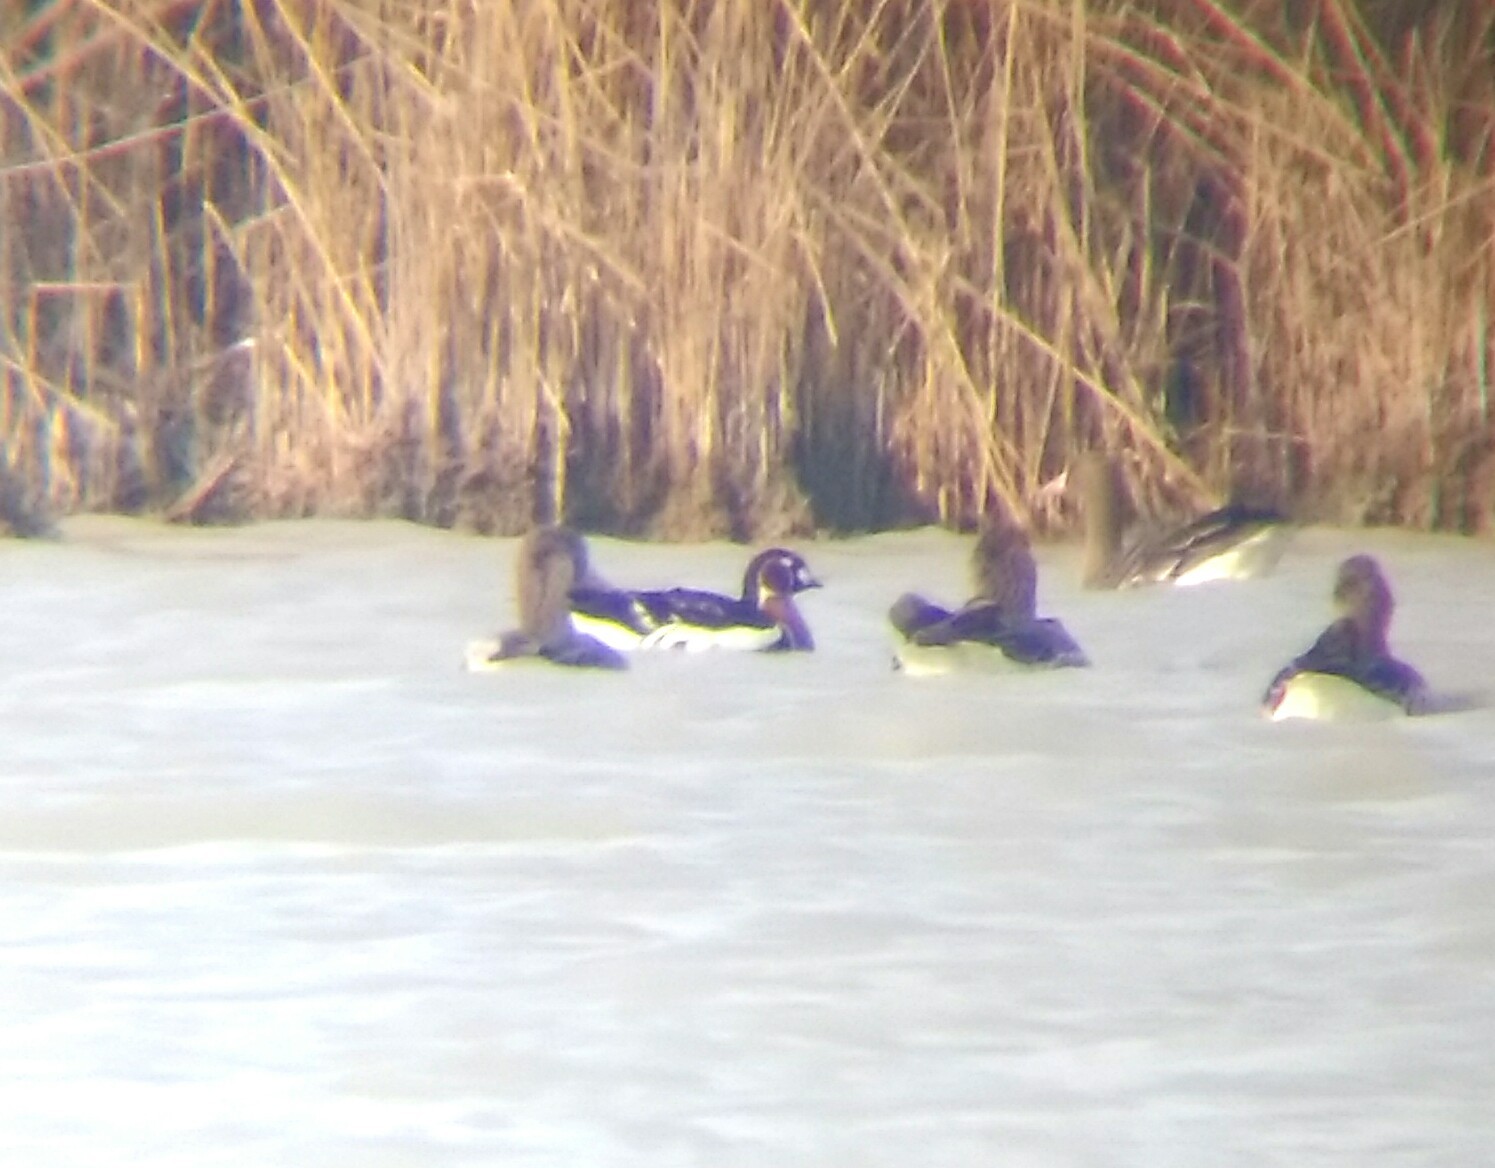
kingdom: Animalia
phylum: Chordata
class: Aves
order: Anseriformes
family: Anatidae
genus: Branta
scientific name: Branta ruficollis
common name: Red-breasted goose
